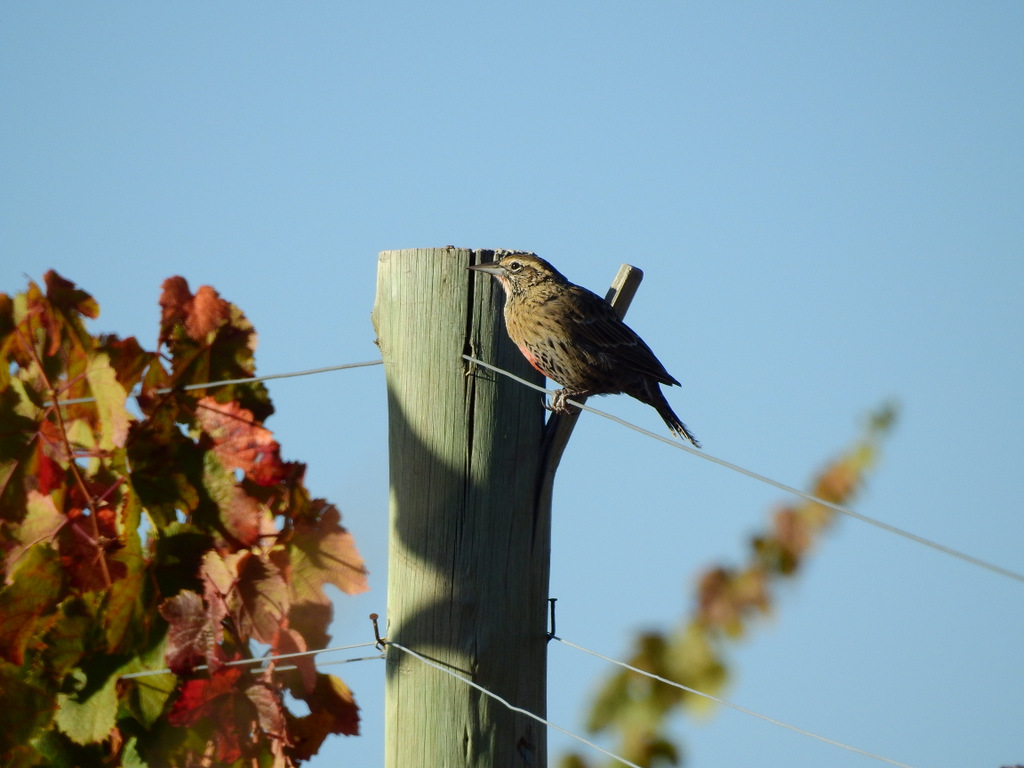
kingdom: Animalia
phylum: Chordata
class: Aves
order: Passeriformes
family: Icteridae
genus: Sturnella
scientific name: Sturnella loyca
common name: Long-tailed meadowlark
